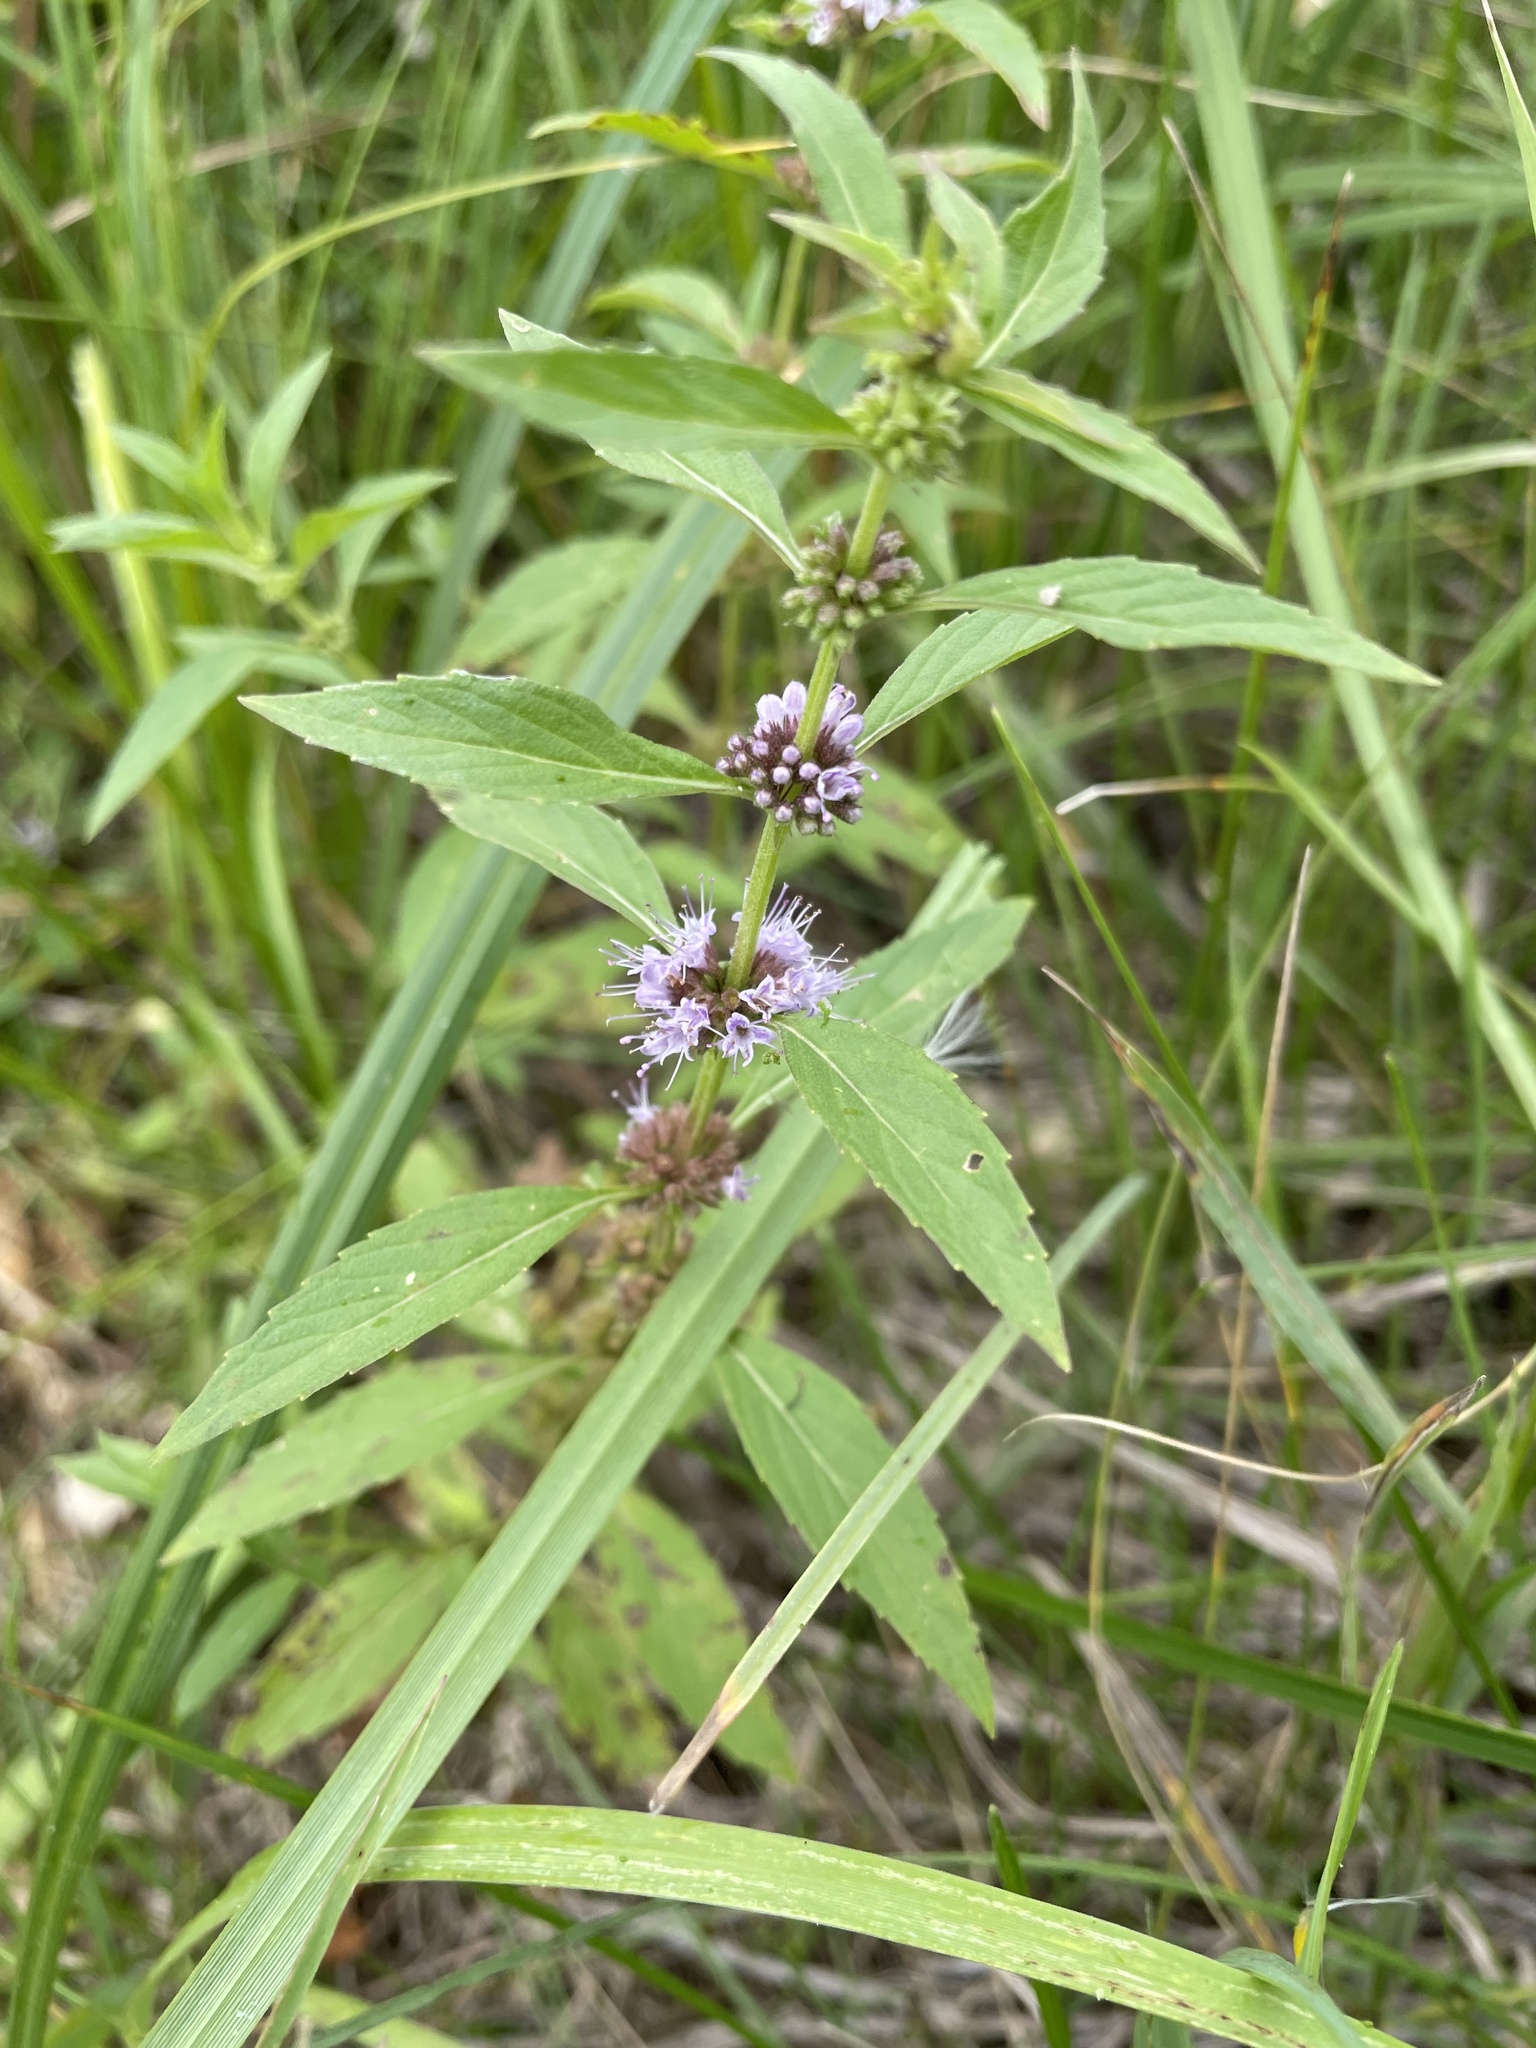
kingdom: Plantae
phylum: Tracheophyta
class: Magnoliopsida
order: Lamiales
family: Lamiaceae
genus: Mentha
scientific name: Mentha canadensis
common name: American corn mint
